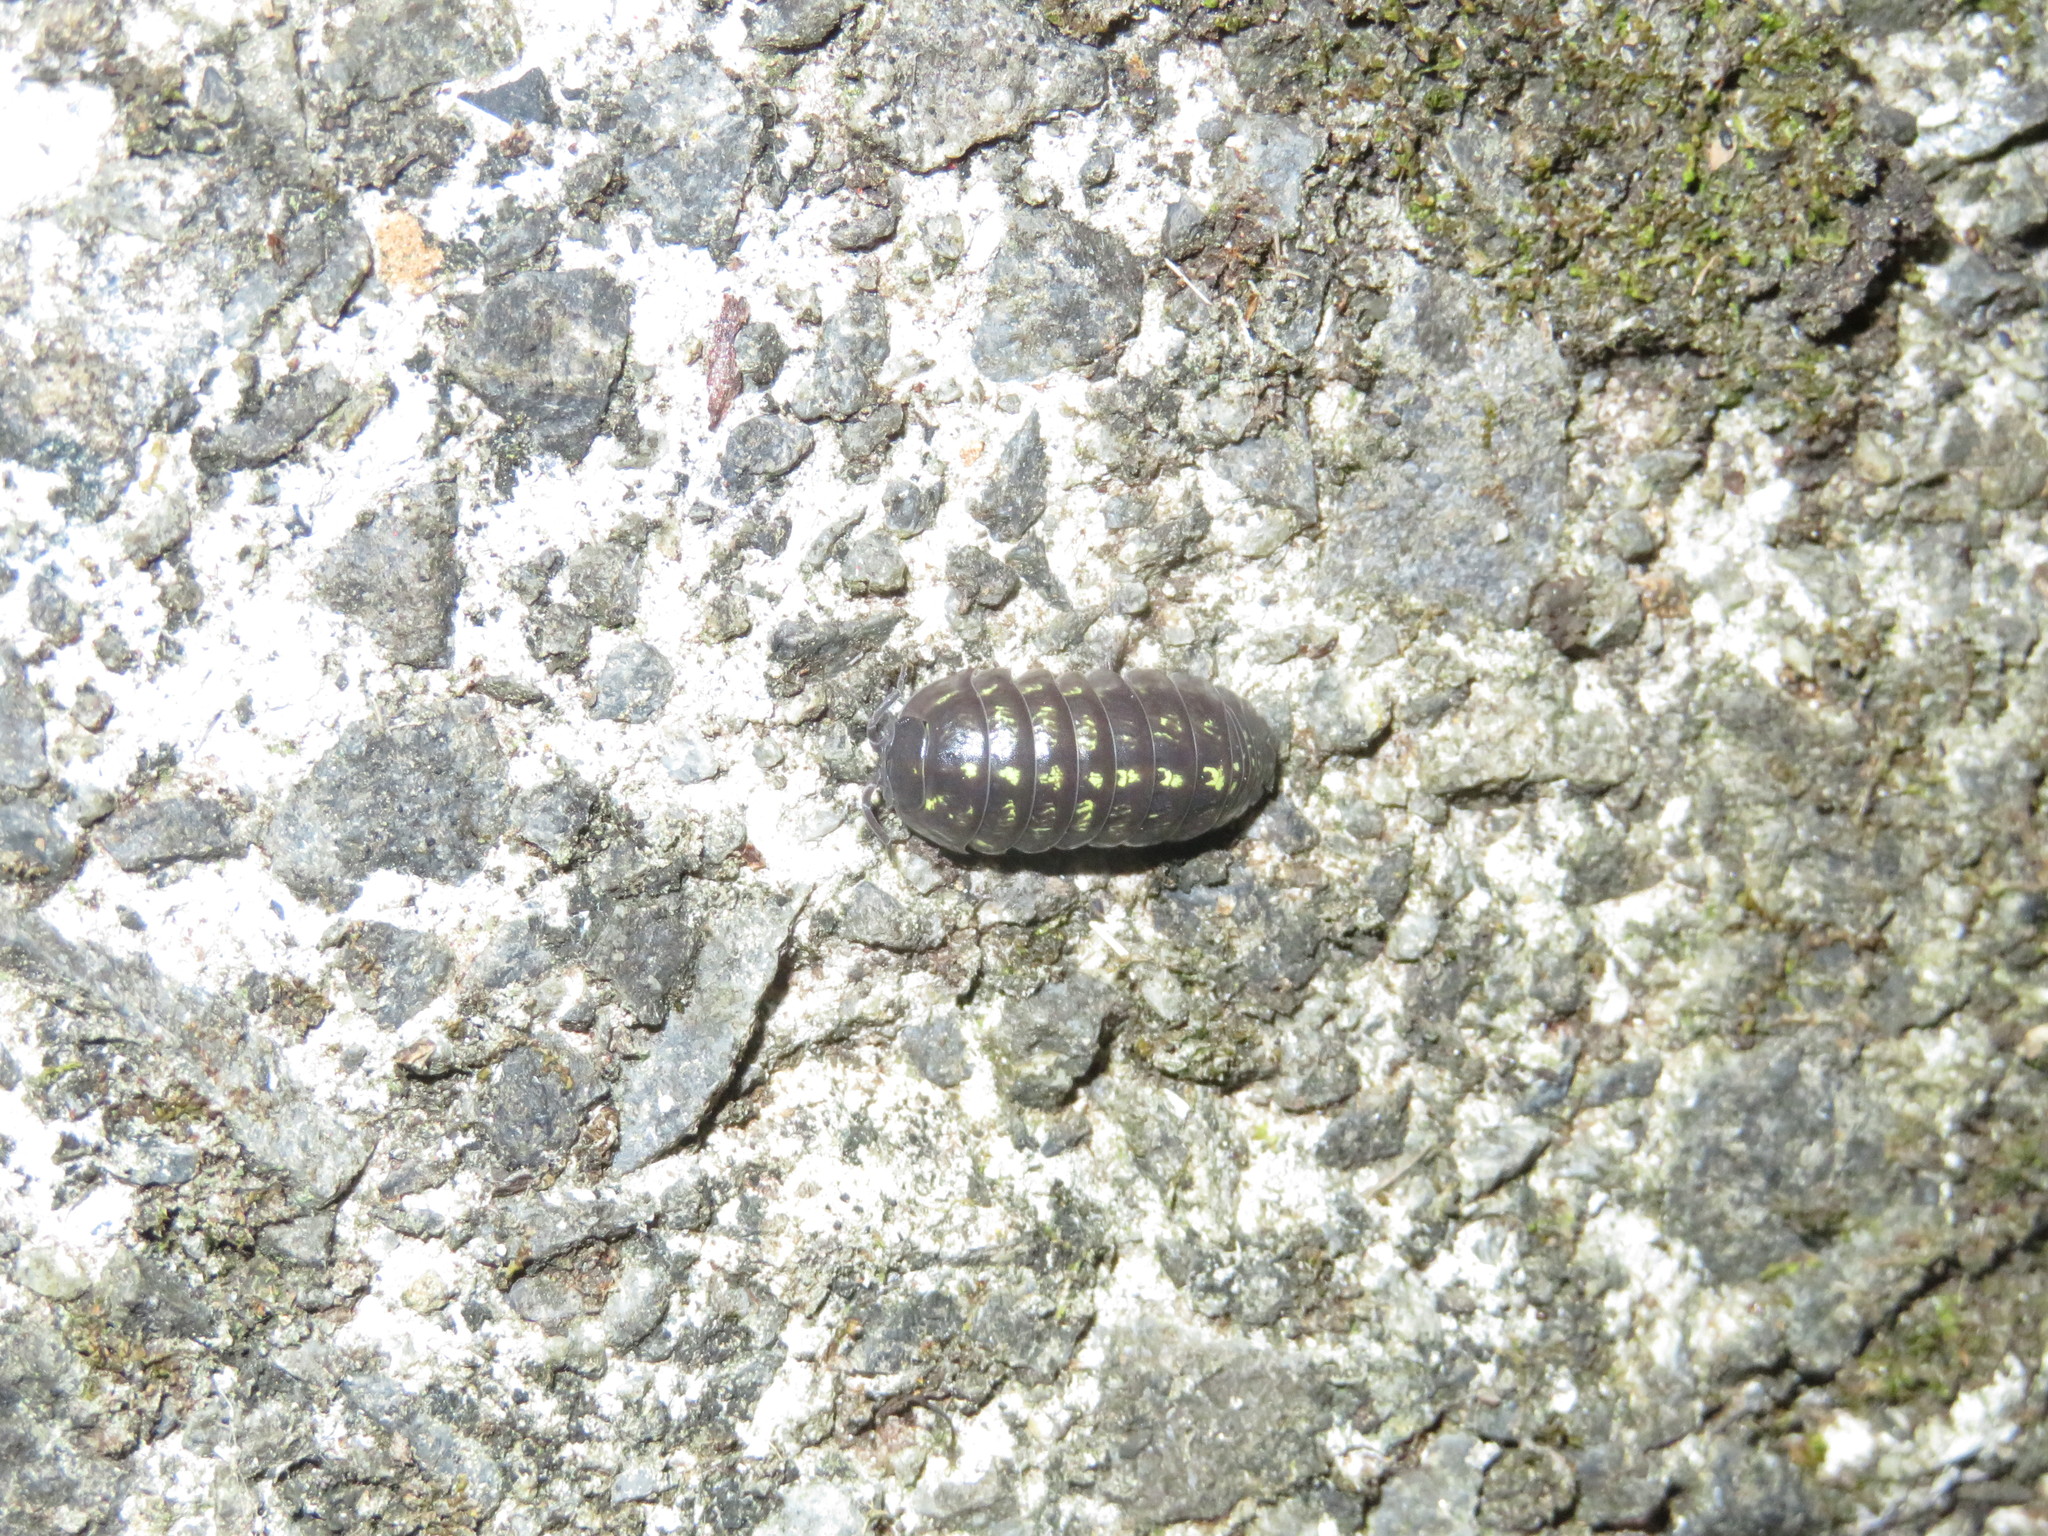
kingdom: Animalia
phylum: Arthropoda
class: Malacostraca
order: Isopoda
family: Armadillidiidae
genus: Armadillidium
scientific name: Armadillidium vulgare
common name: Common pill woodlouse
